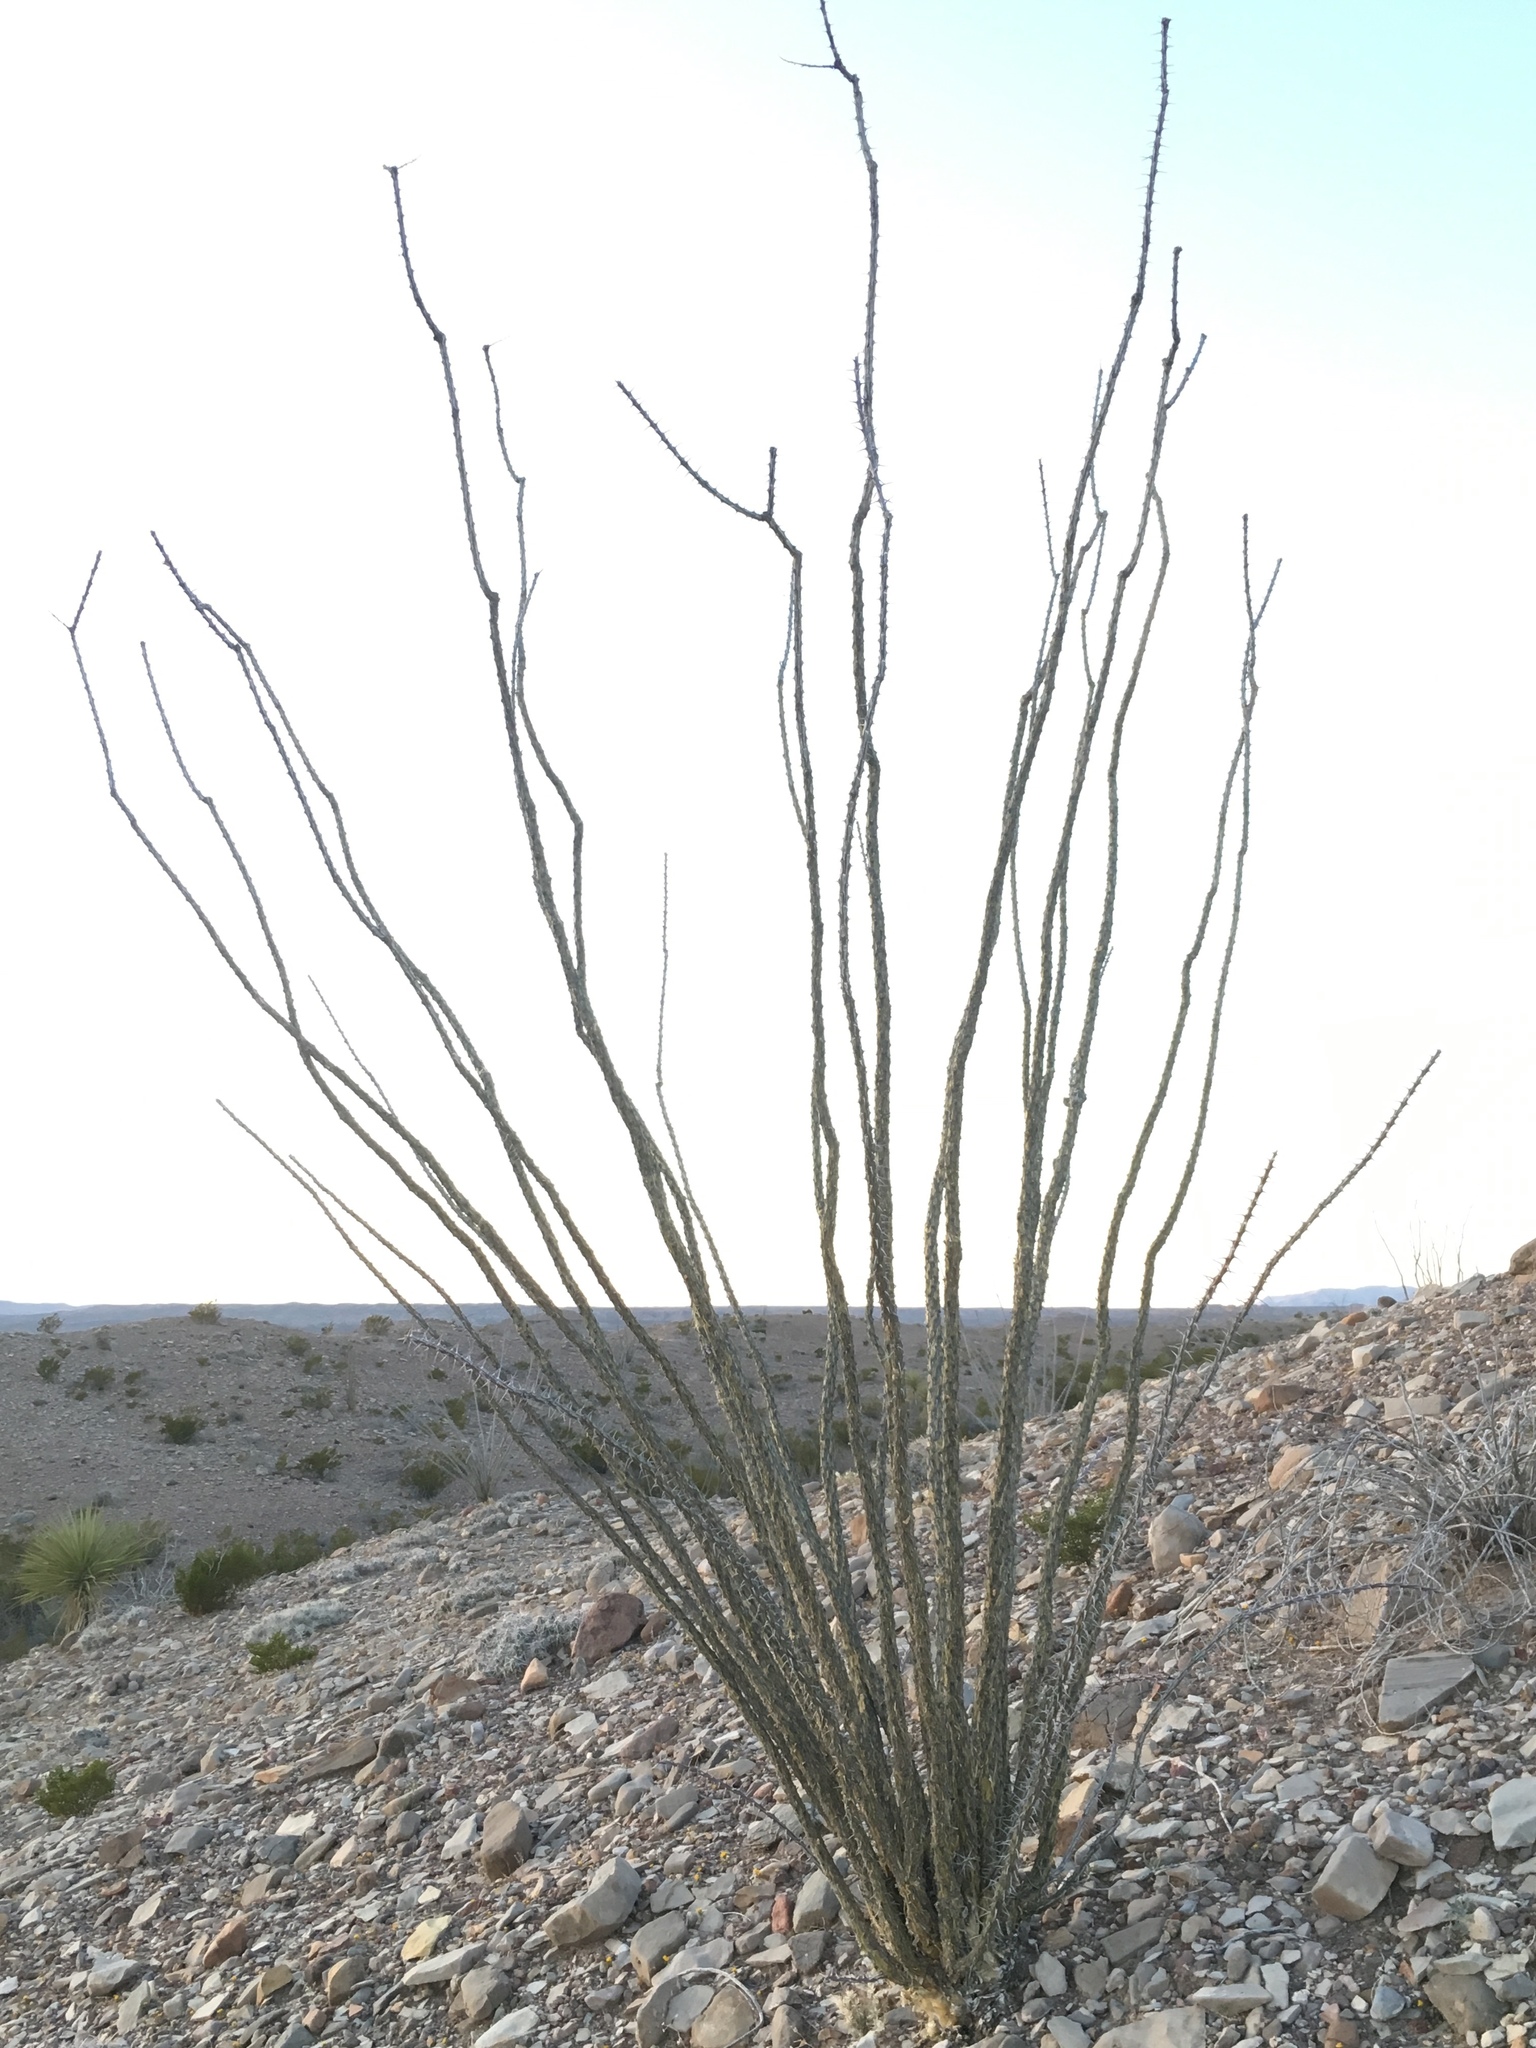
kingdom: Plantae
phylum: Tracheophyta
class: Magnoliopsida
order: Ericales
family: Fouquieriaceae
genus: Fouquieria
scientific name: Fouquieria splendens
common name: Vine-cactus
